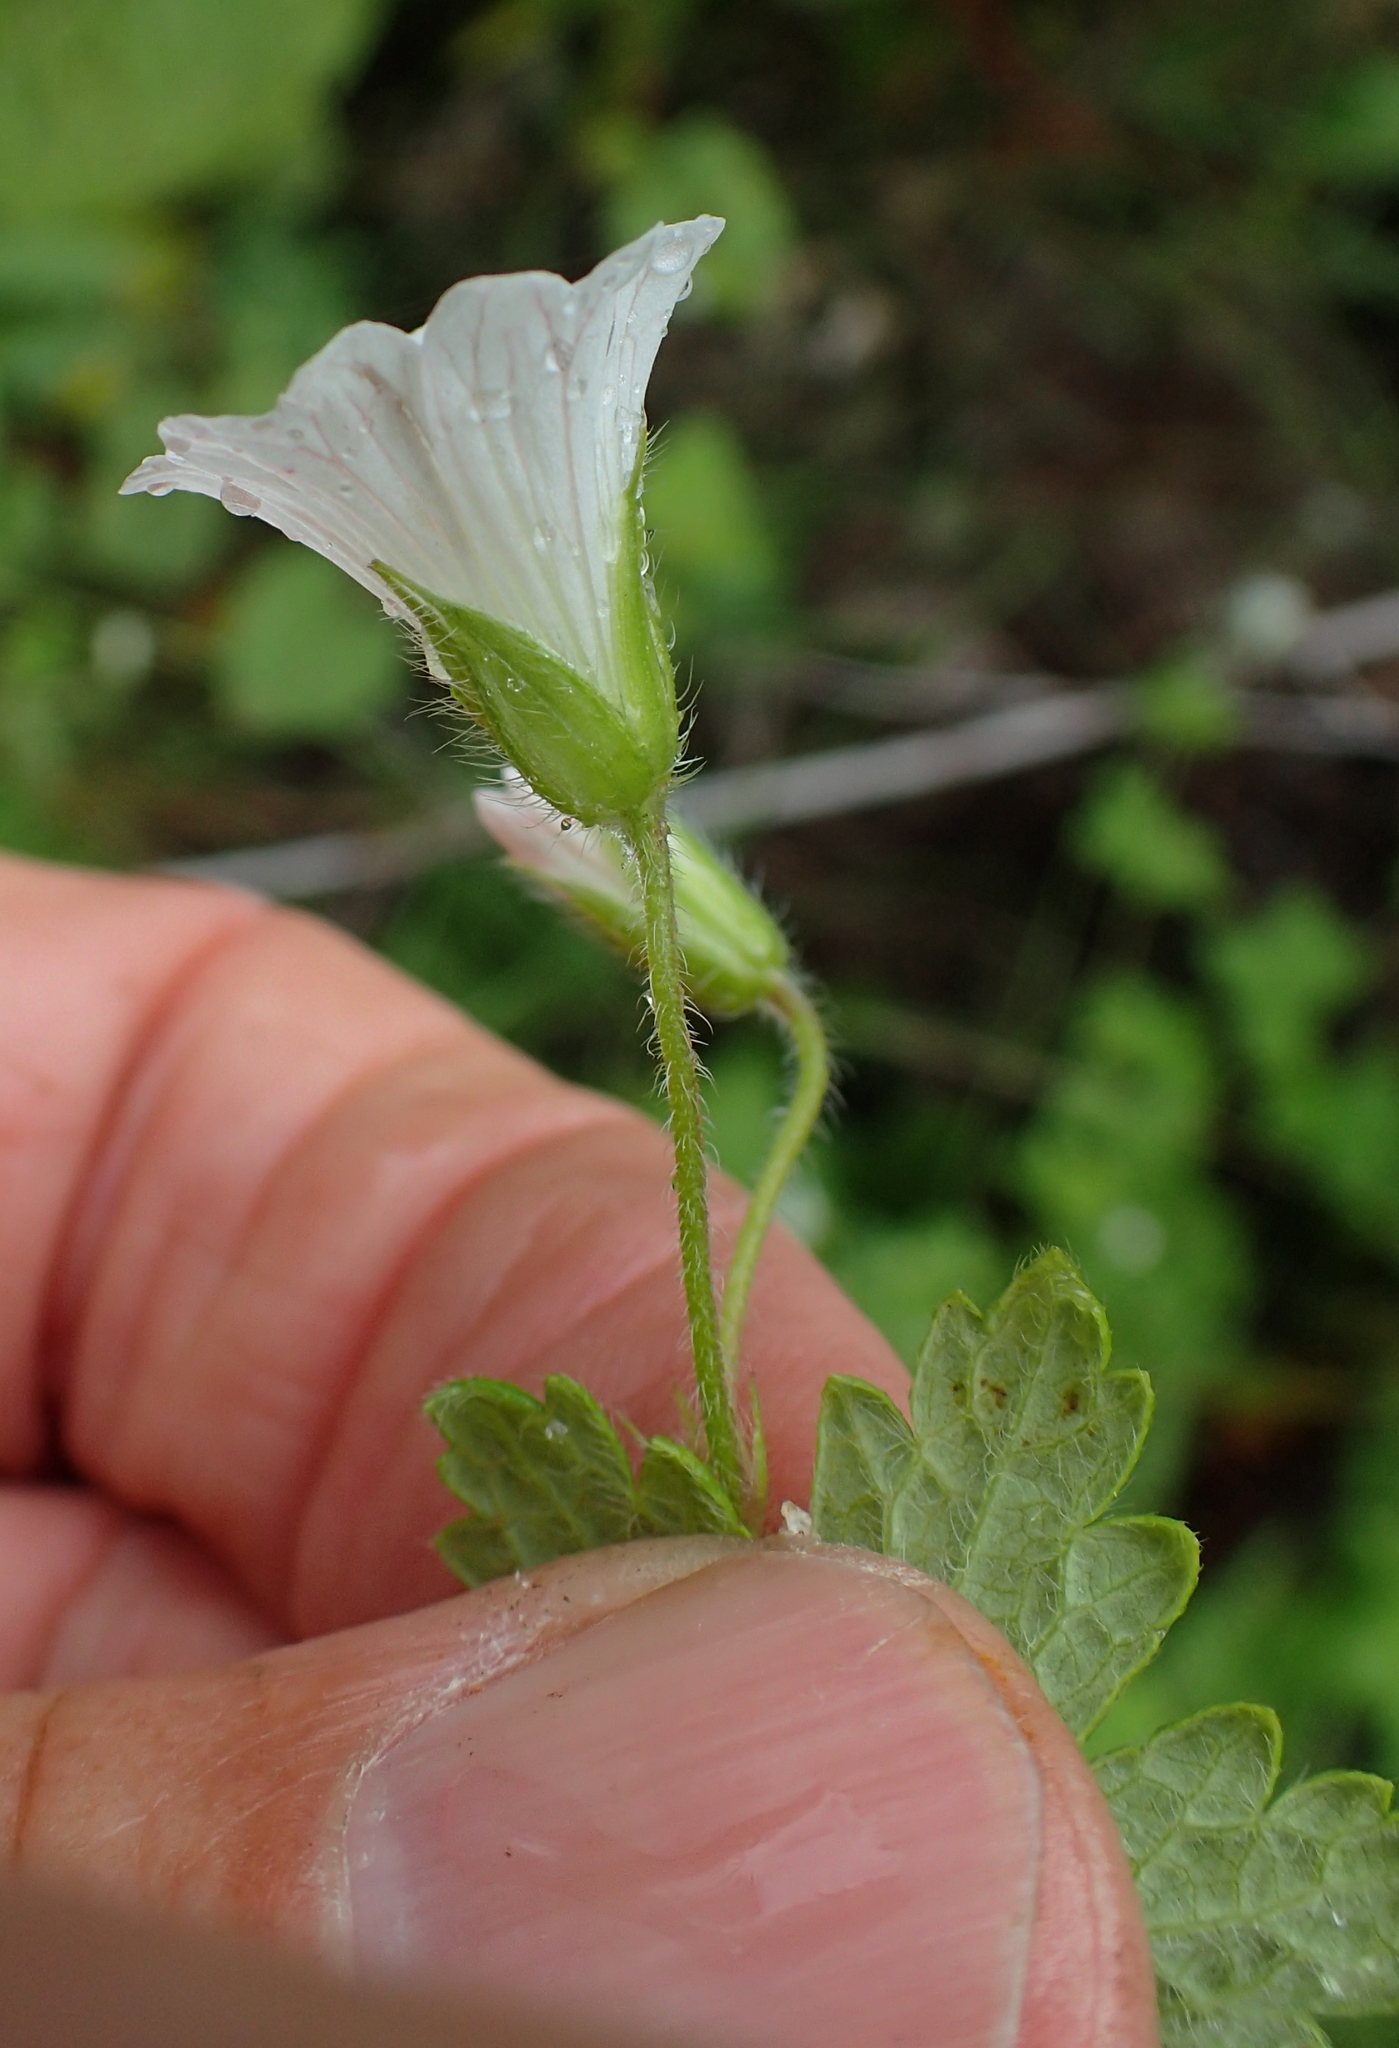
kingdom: Plantae
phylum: Tracheophyta
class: Magnoliopsida
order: Geraniales
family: Geraniaceae
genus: Geranium
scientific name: Geranium wakkerstroomianum
